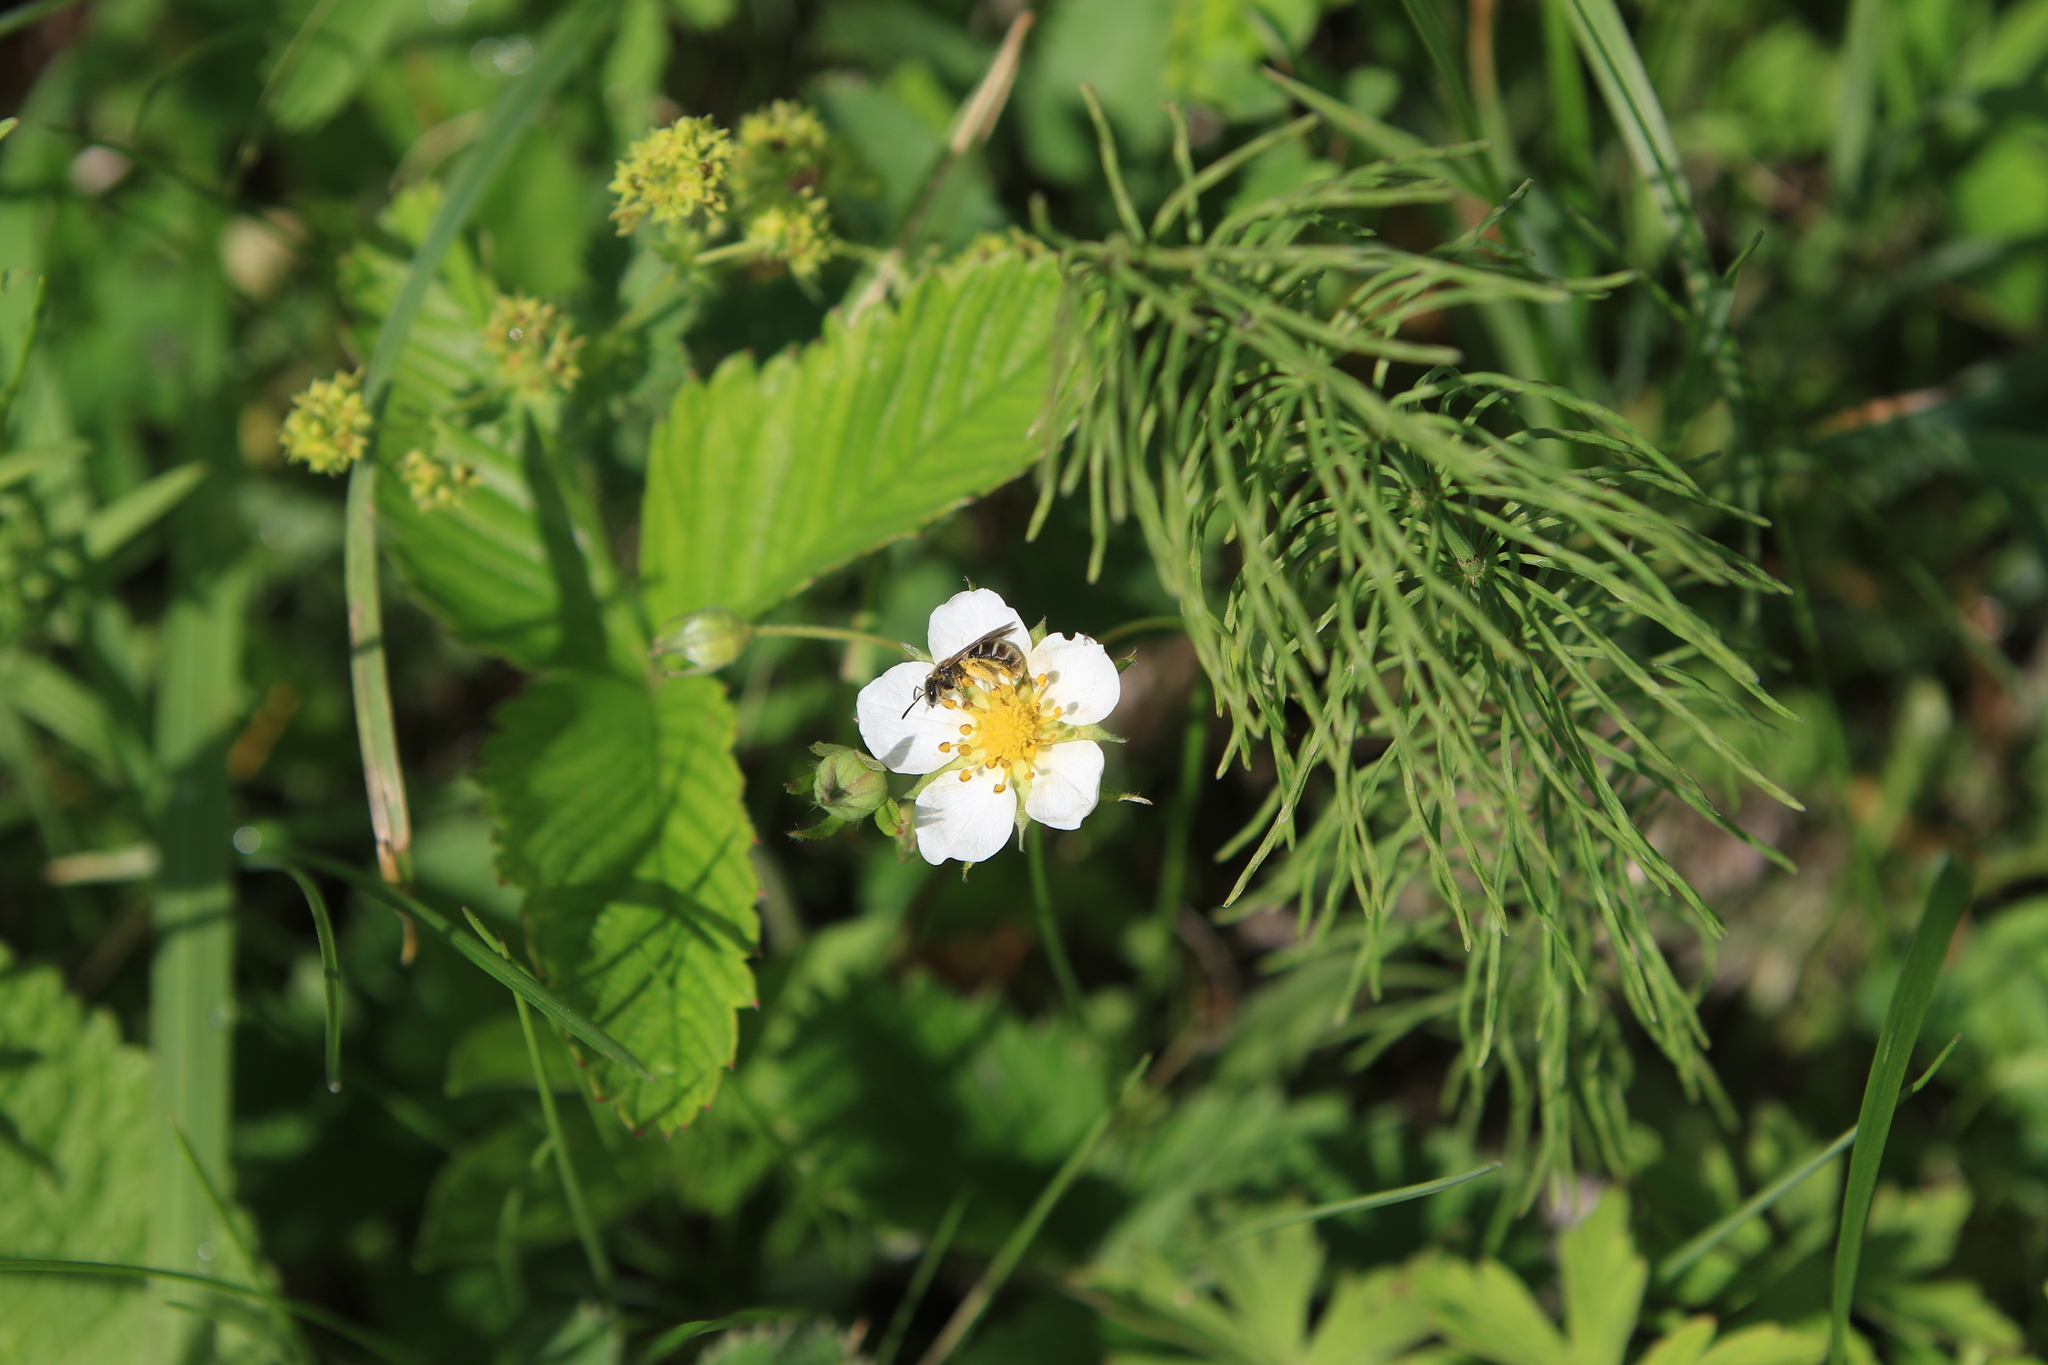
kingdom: Plantae
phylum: Tracheophyta
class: Magnoliopsida
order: Rosales
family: Rosaceae
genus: Fragaria
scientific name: Fragaria viridis
